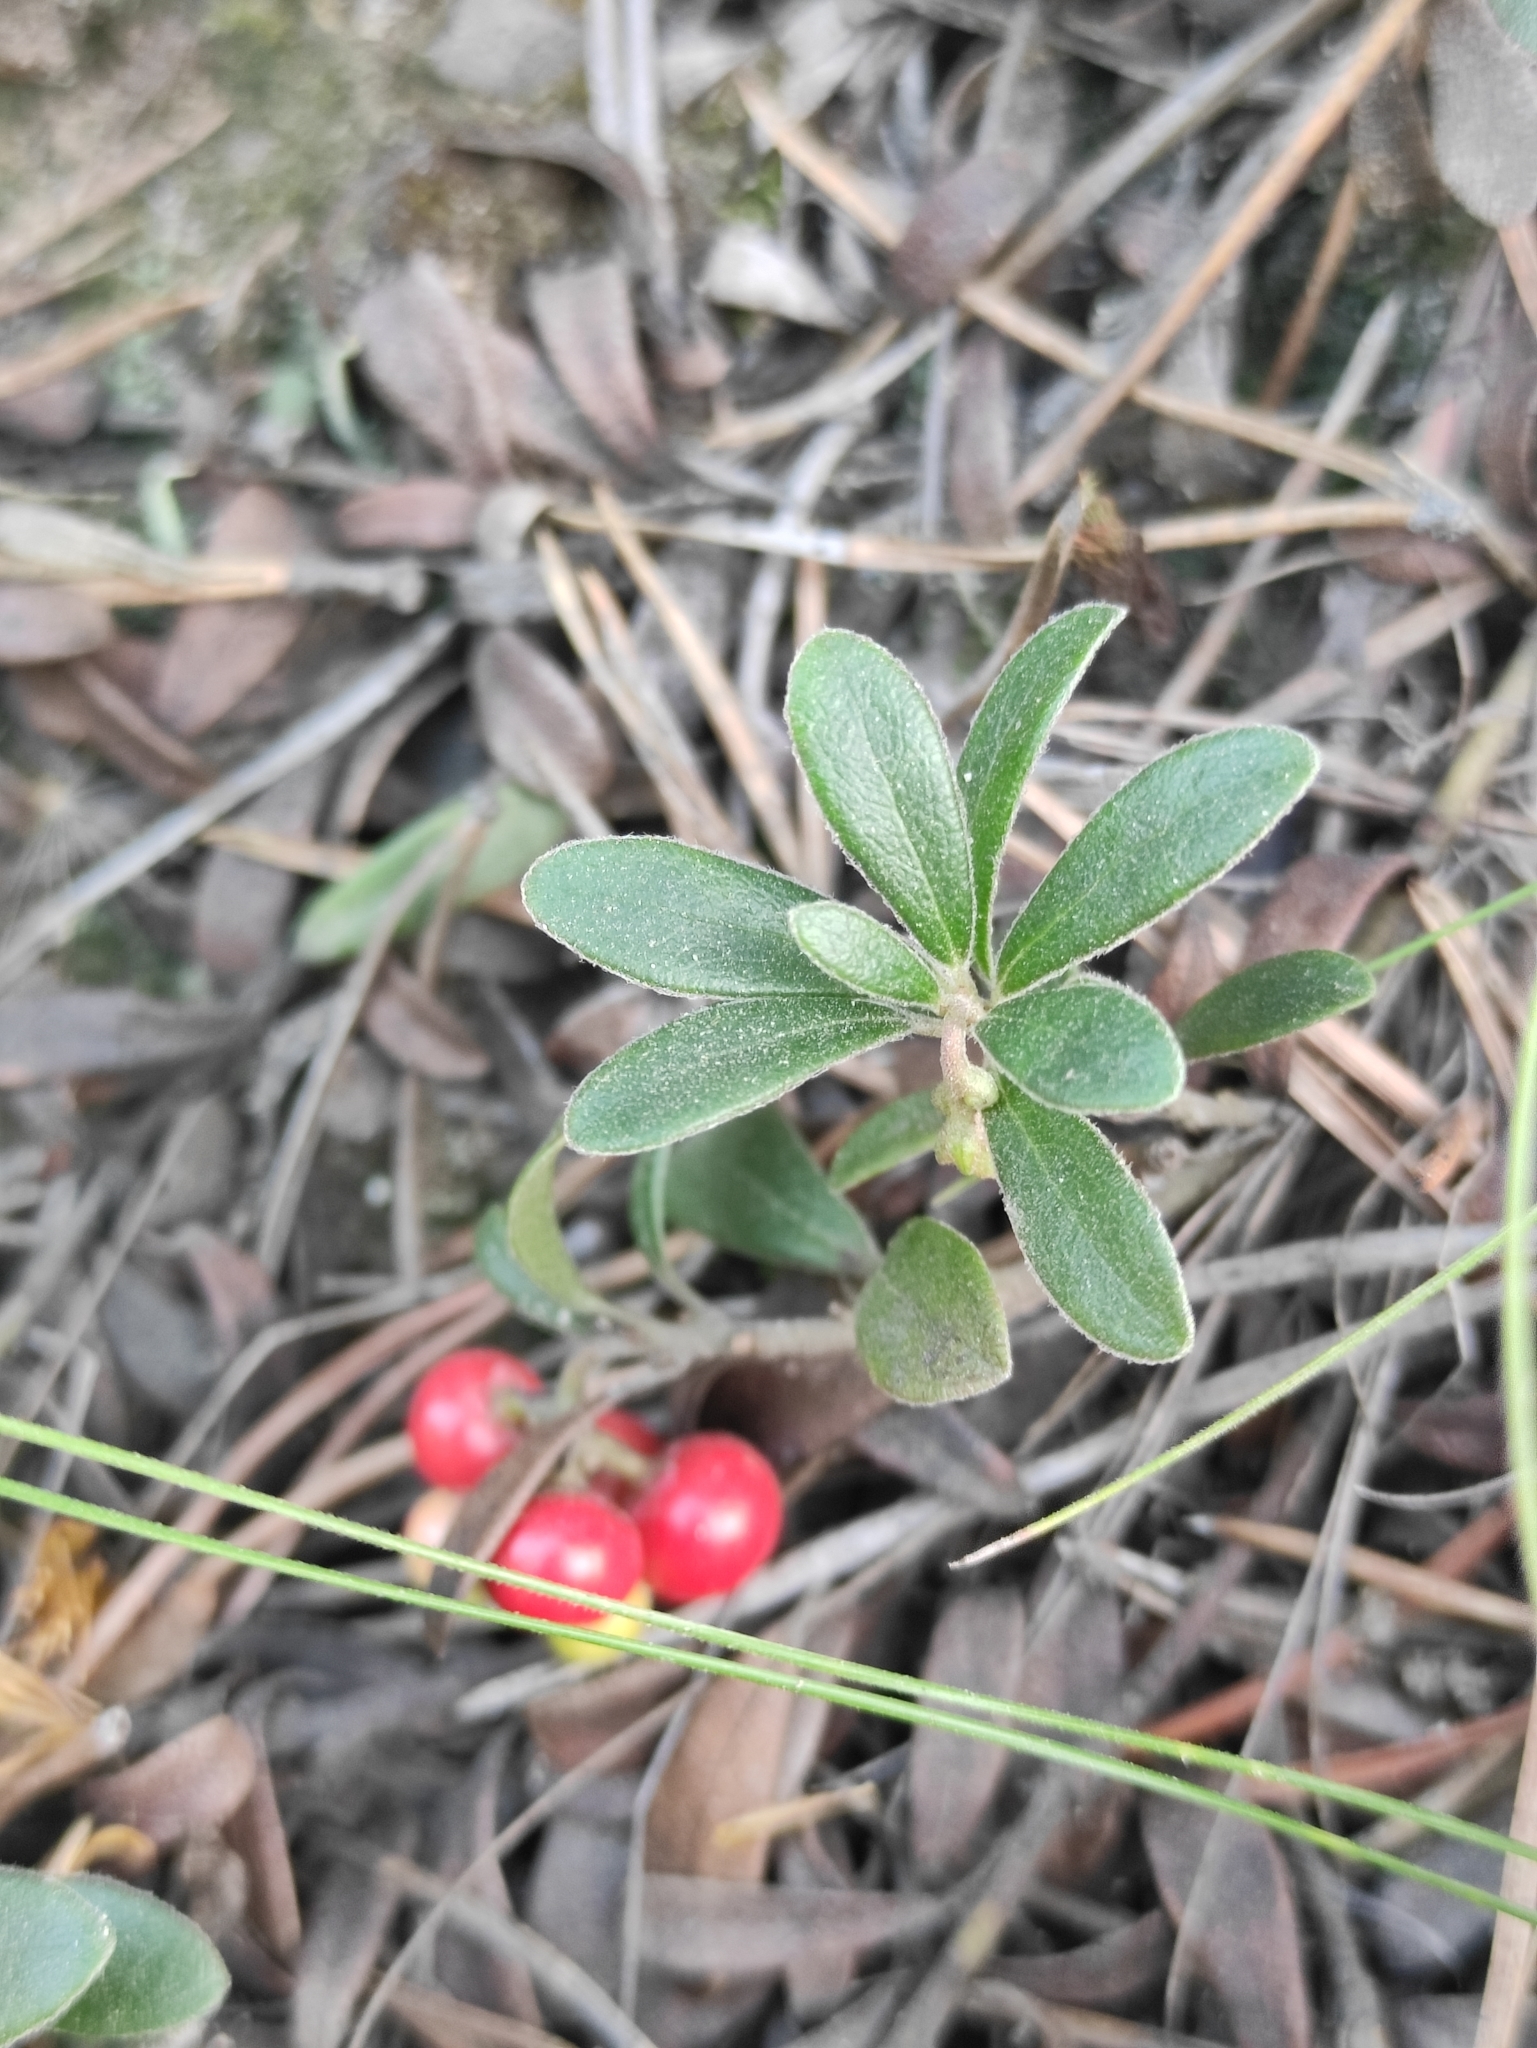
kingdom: Plantae
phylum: Tracheophyta
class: Magnoliopsida
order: Ericales
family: Ericaceae
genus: Arctostaphylos
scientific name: Arctostaphylos uva-ursi
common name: Bearberry
